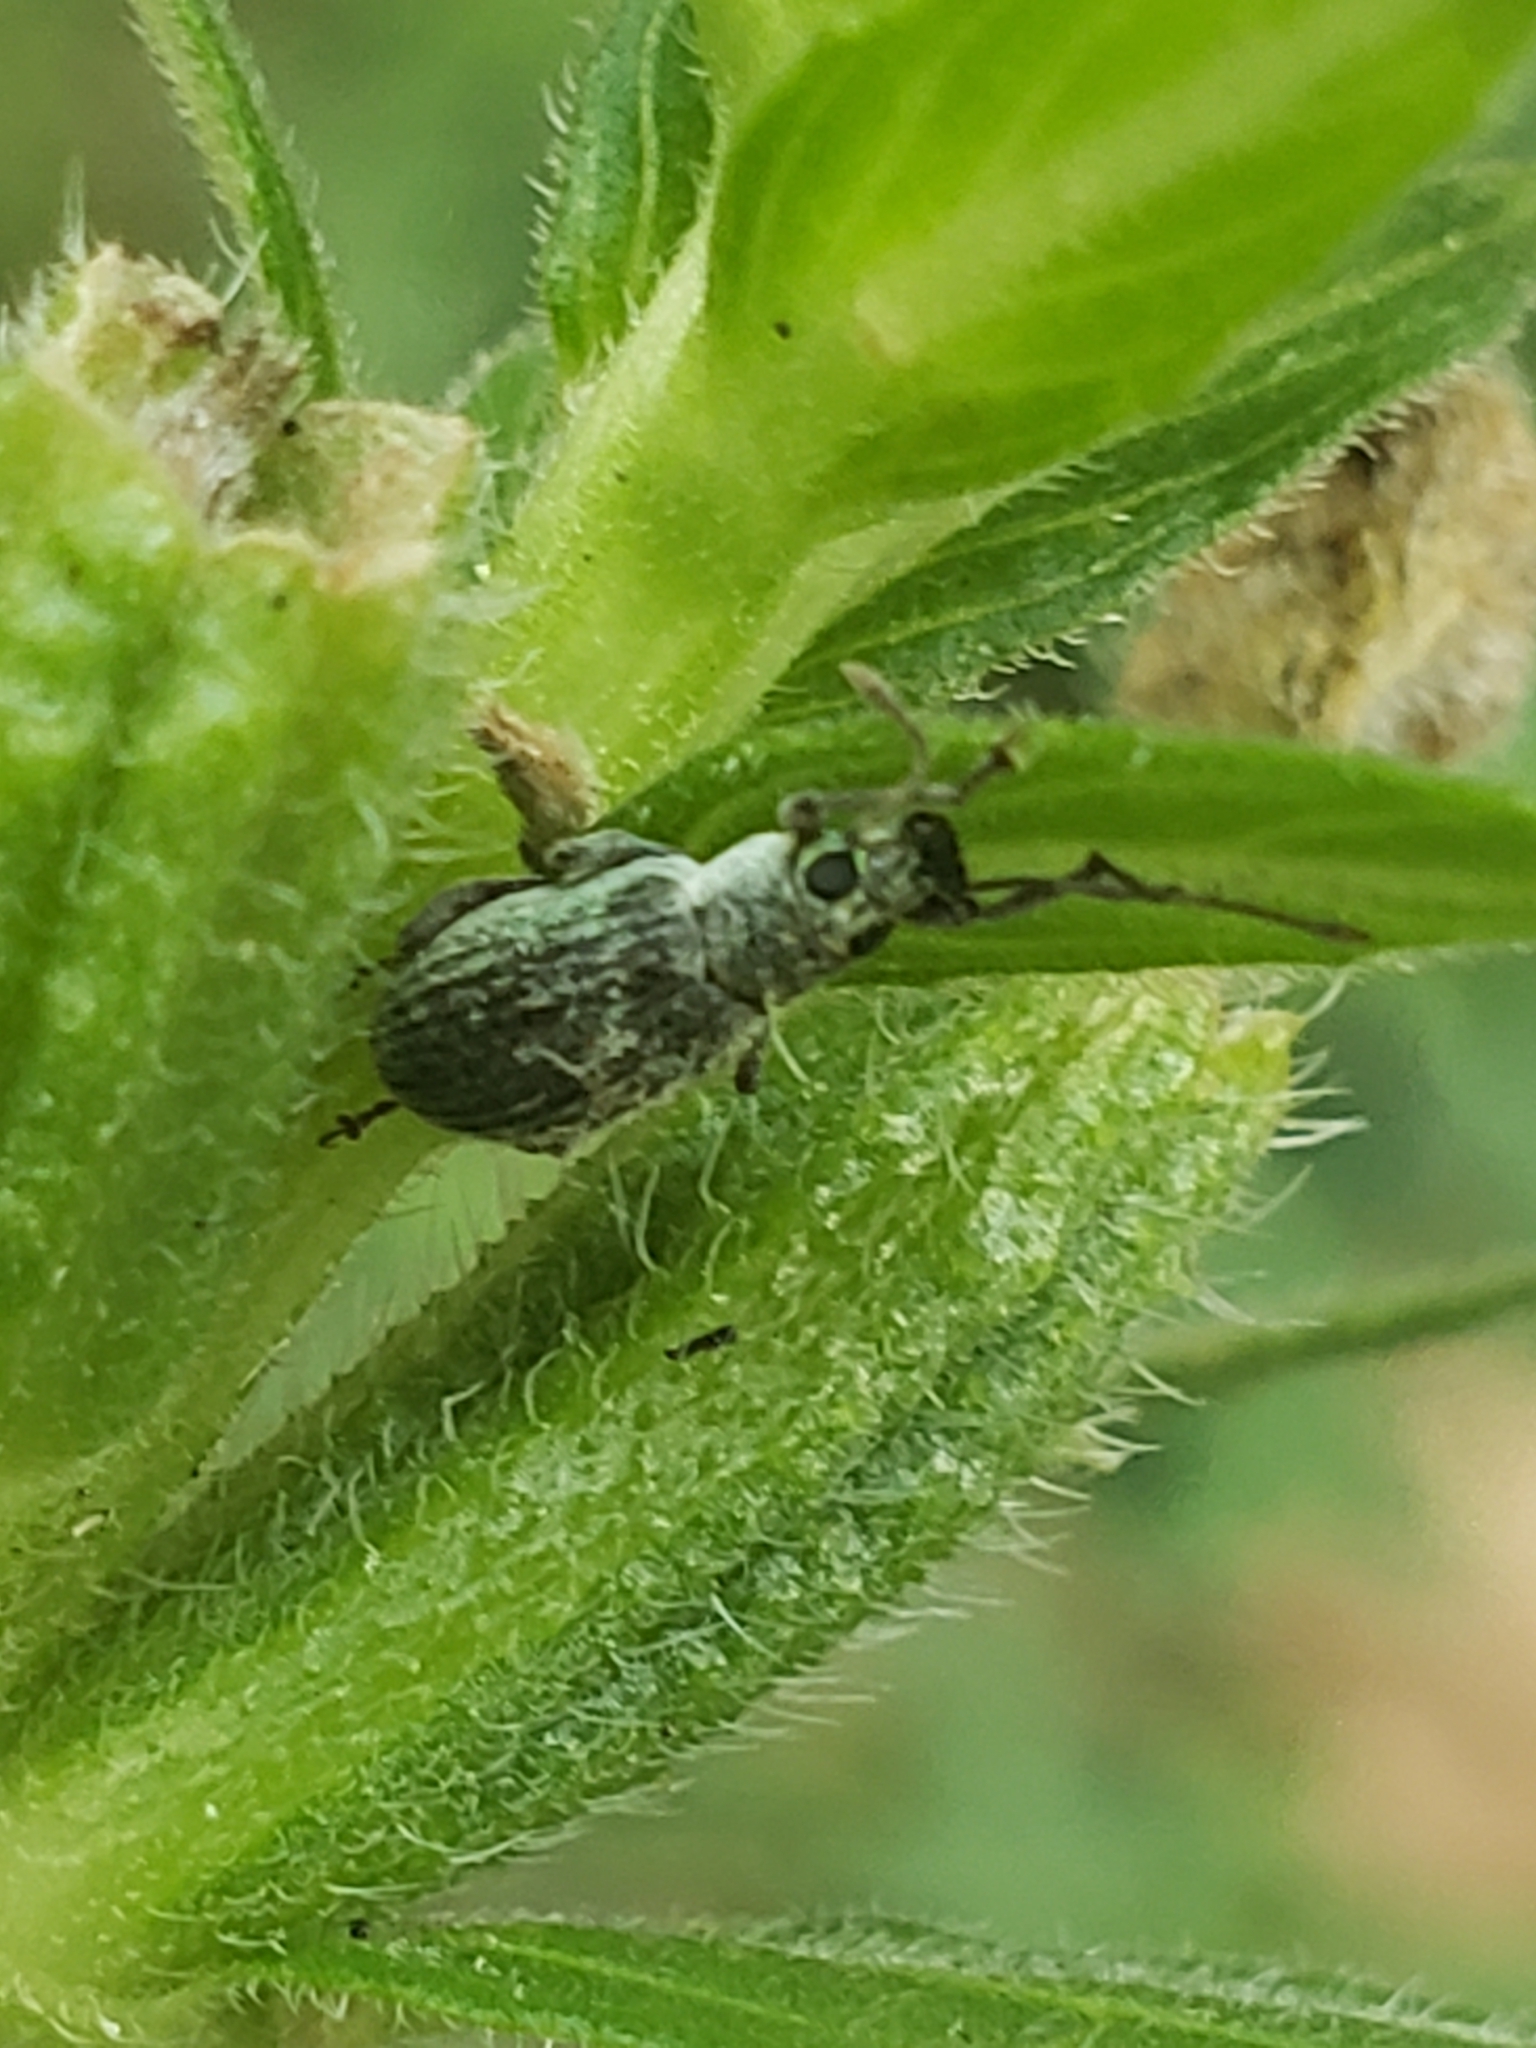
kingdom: Animalia
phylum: Arthropoda
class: Insecta
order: Coleoptera
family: Curculionidae
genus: Cyrtepistomus
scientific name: Cyrtepistomus castaneus
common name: Weevil
